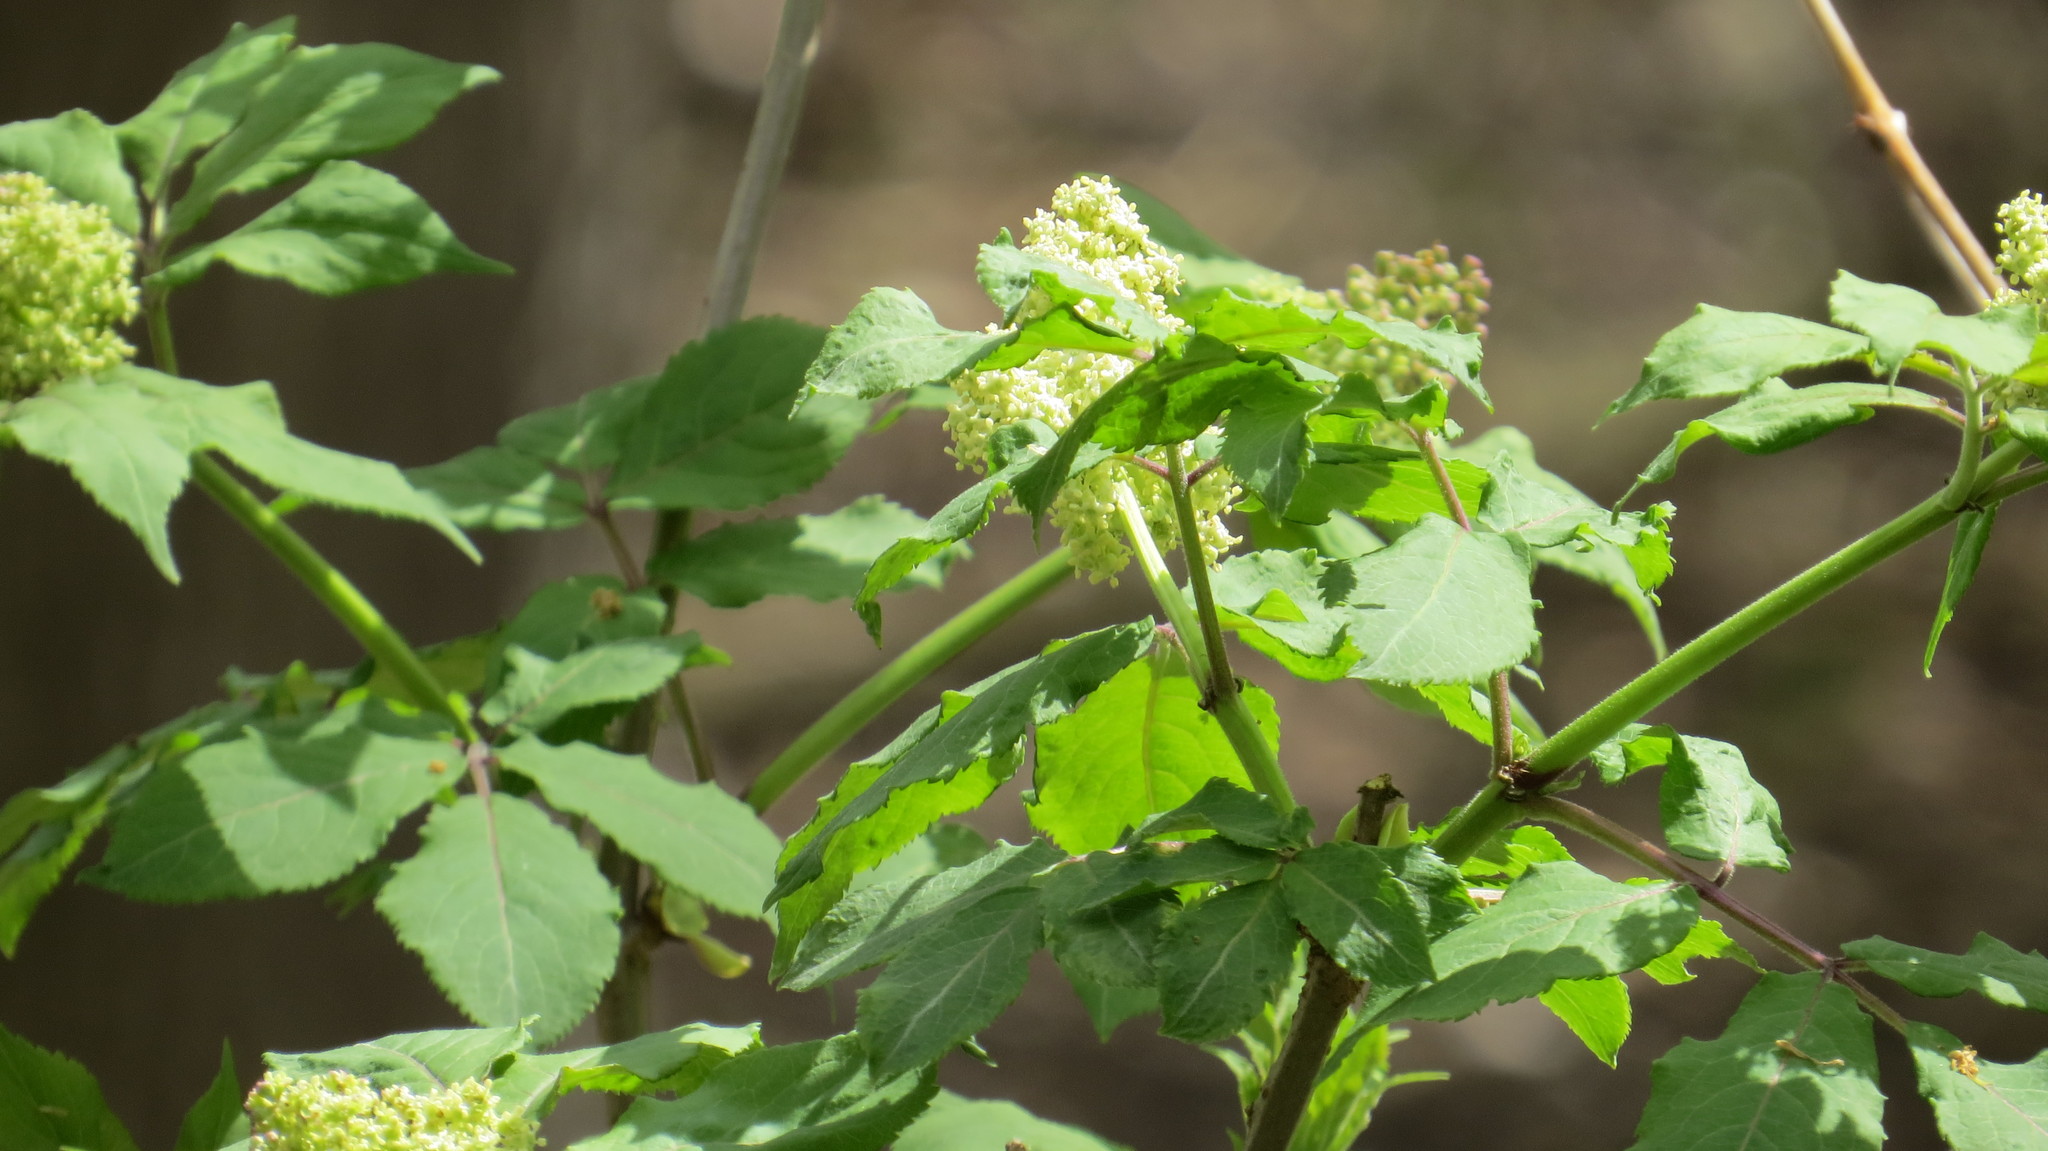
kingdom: Plantae
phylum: Tracheophyta
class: Magnoliopsida
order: Dipsacales
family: Viburnaceae
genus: Sambucus
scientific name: Sambucus racemosa
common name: Red-berried elder
